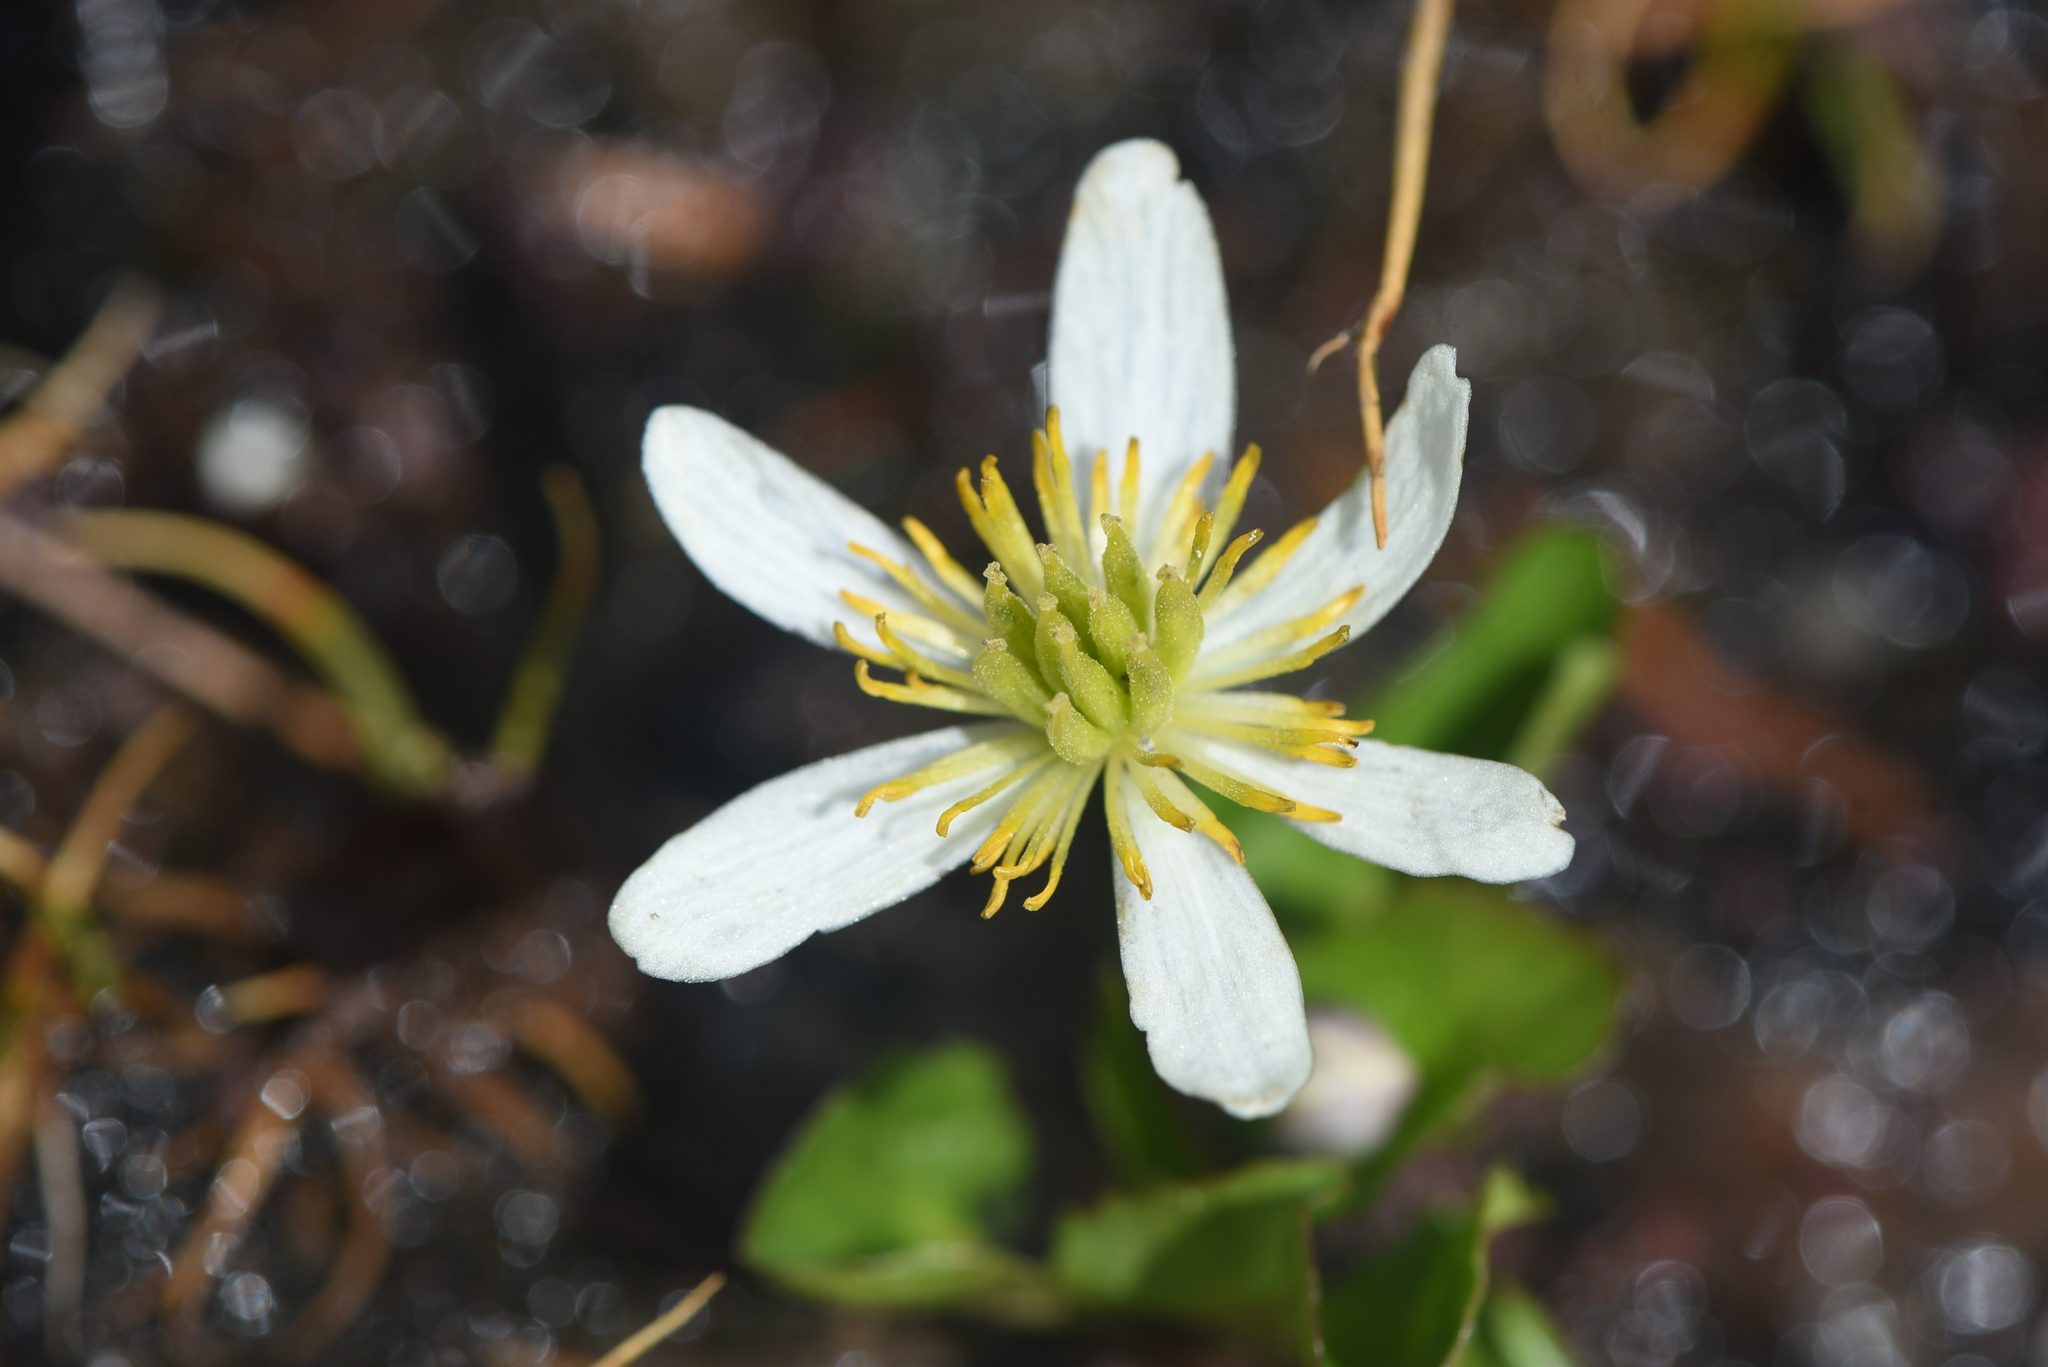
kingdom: Plantae
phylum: Tracheophyta
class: Magnoliopsida
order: Ranunculales
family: Ranunculaceae
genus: Caltha
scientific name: Caltha leptosepala
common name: Elkslip
